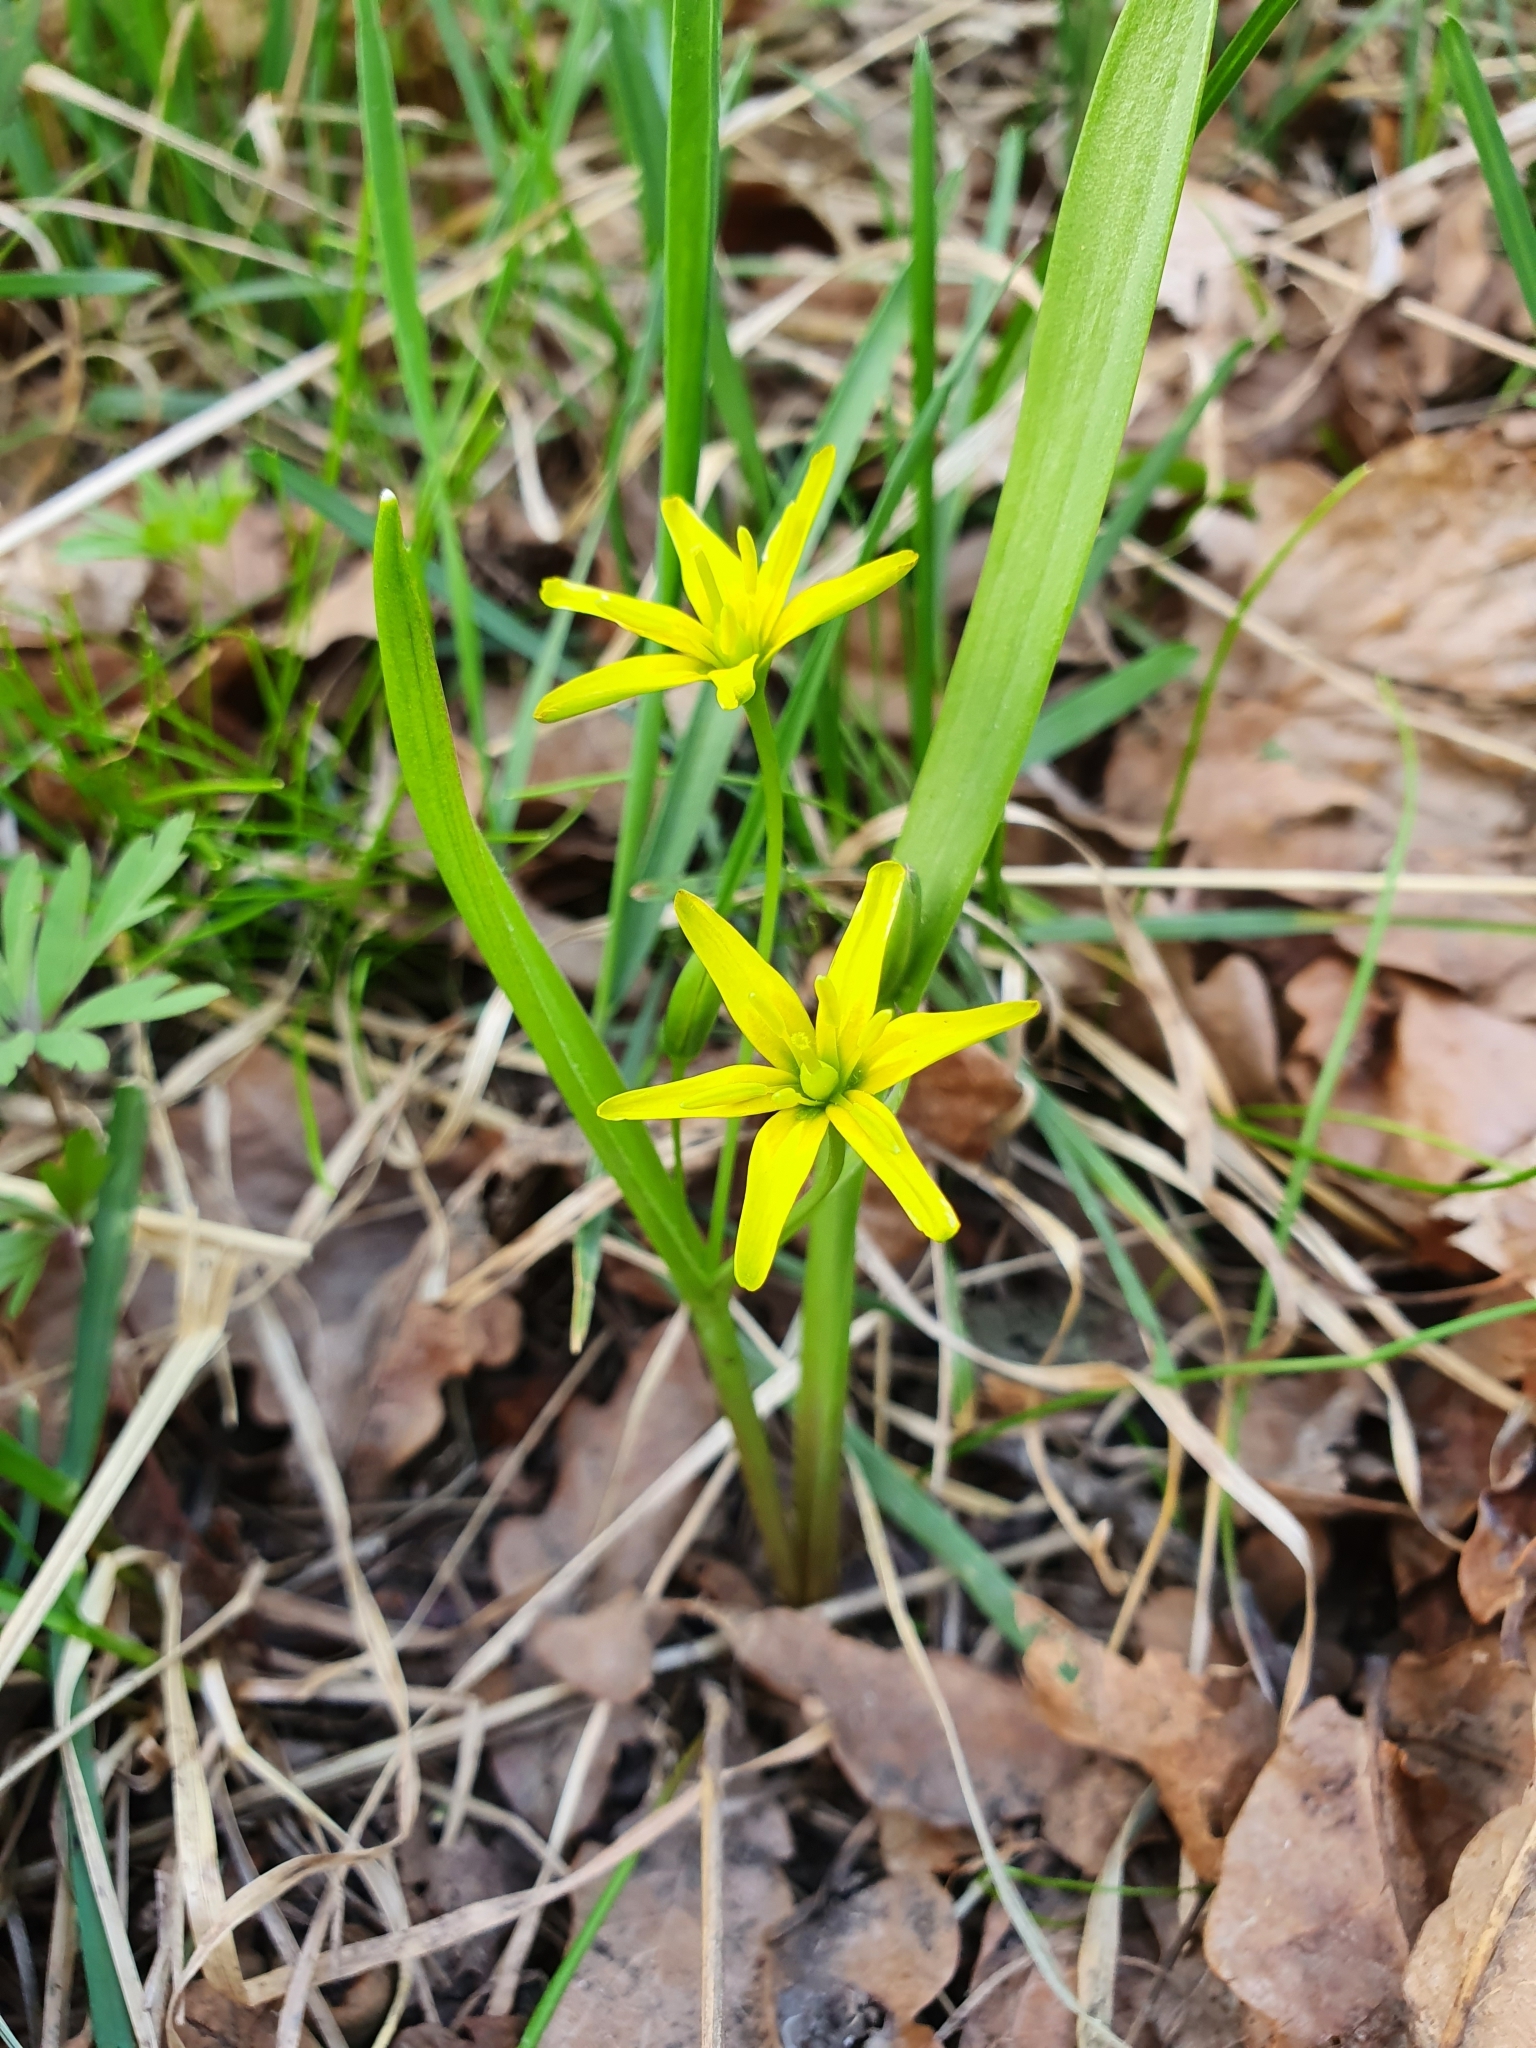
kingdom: Plantae
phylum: Tracheophyta
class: Liliopsida
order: Liliales
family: Liliaceae
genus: Gagea
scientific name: Gagea lutea
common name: Yellow star-of-bethlehem
